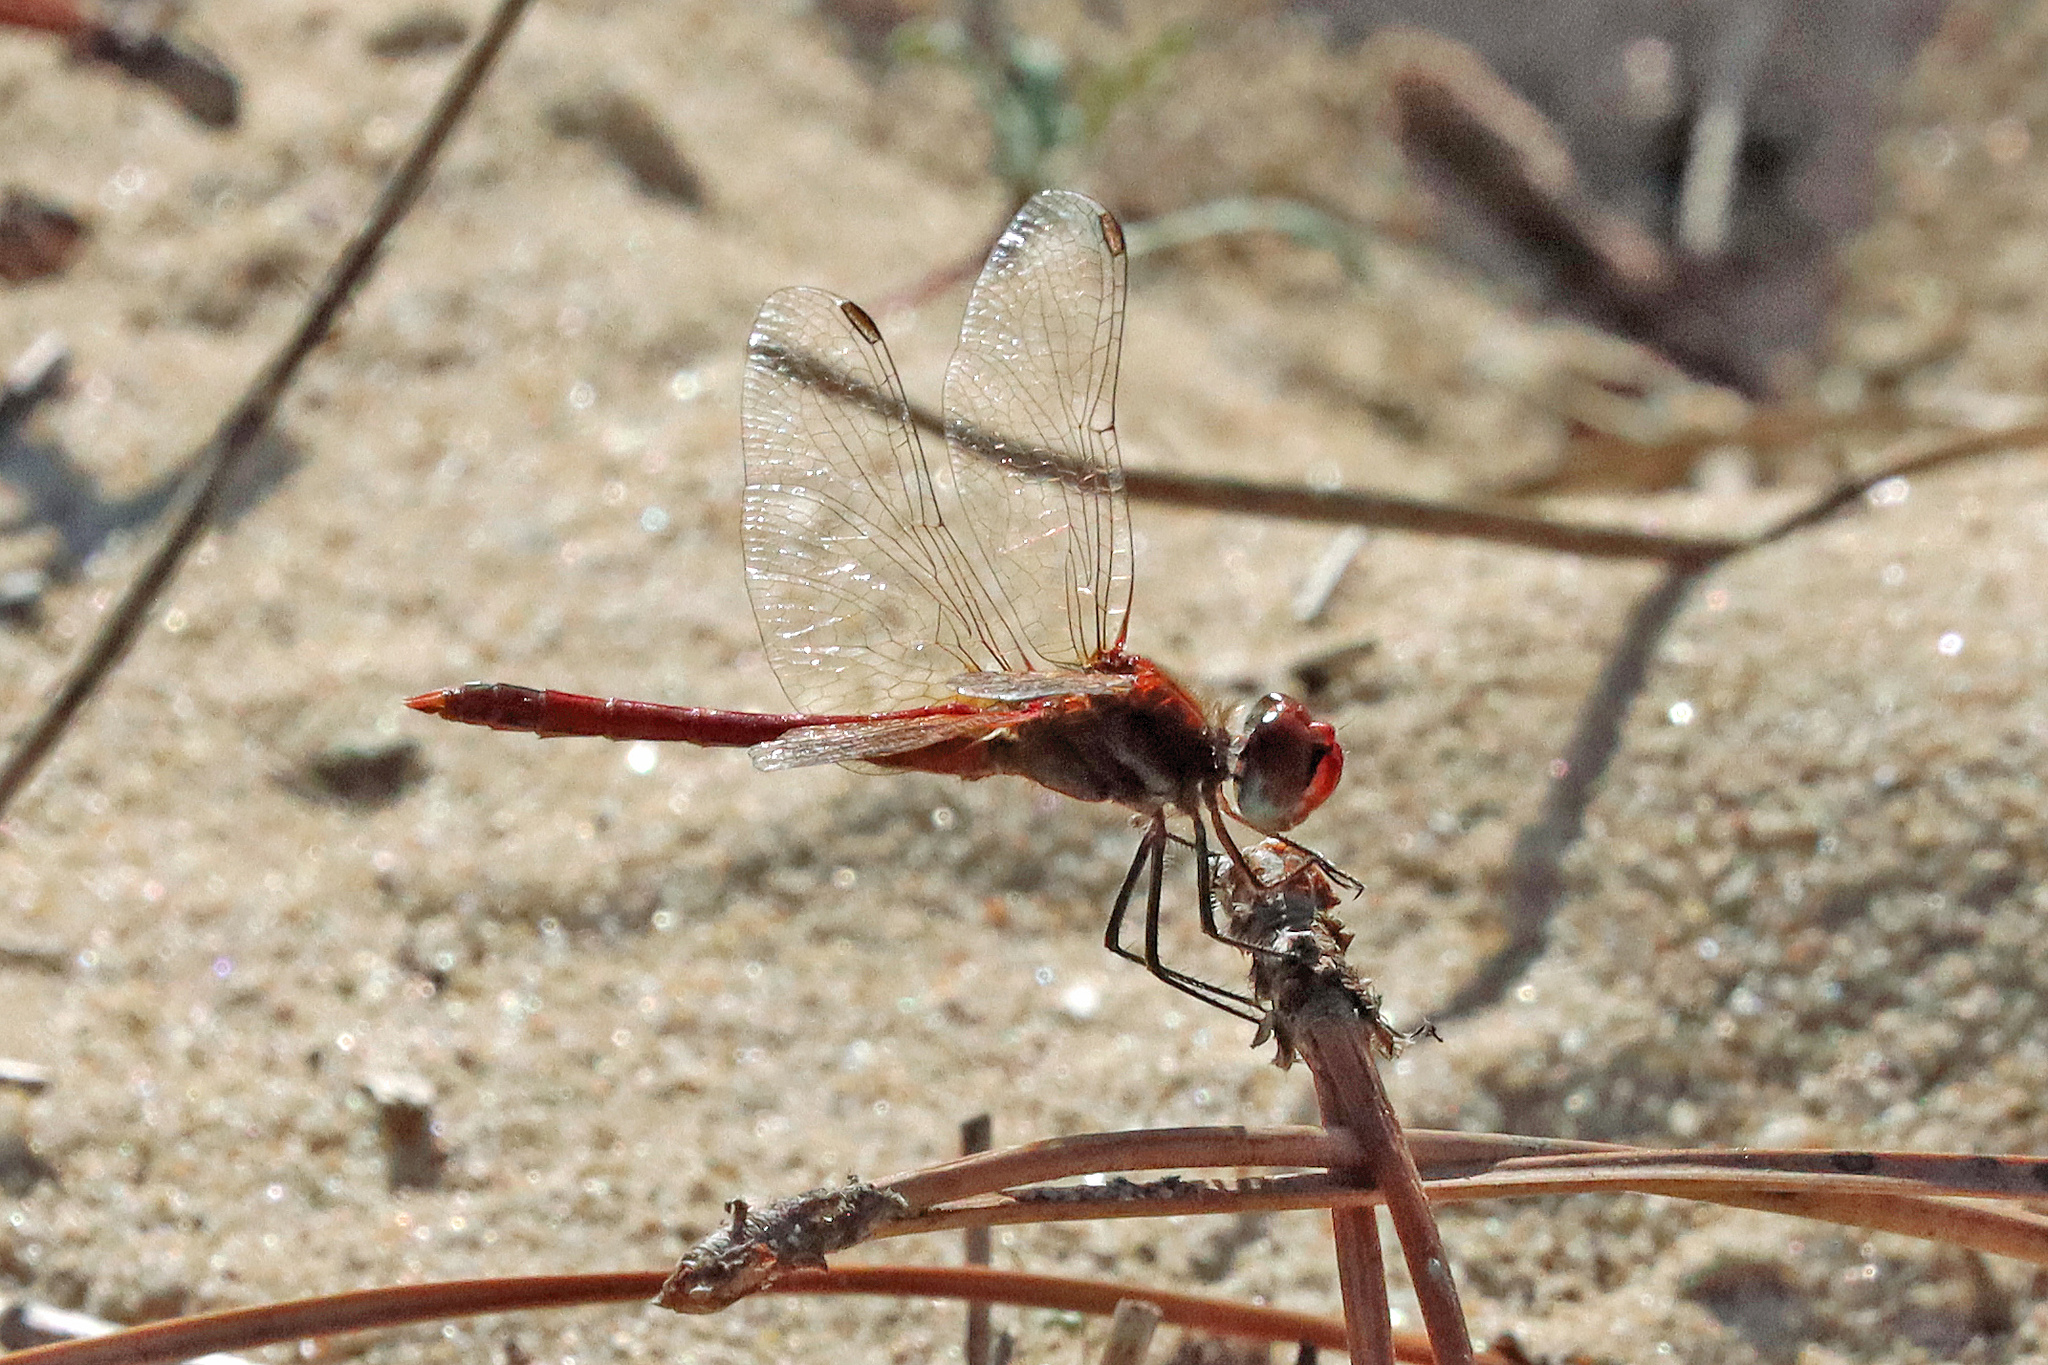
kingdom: Animalia
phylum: Arthropoda
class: Insecta
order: Odonata
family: Libellulidae
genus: Sympetrum
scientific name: Sympetrum fonscolombii
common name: Red-veined darter
